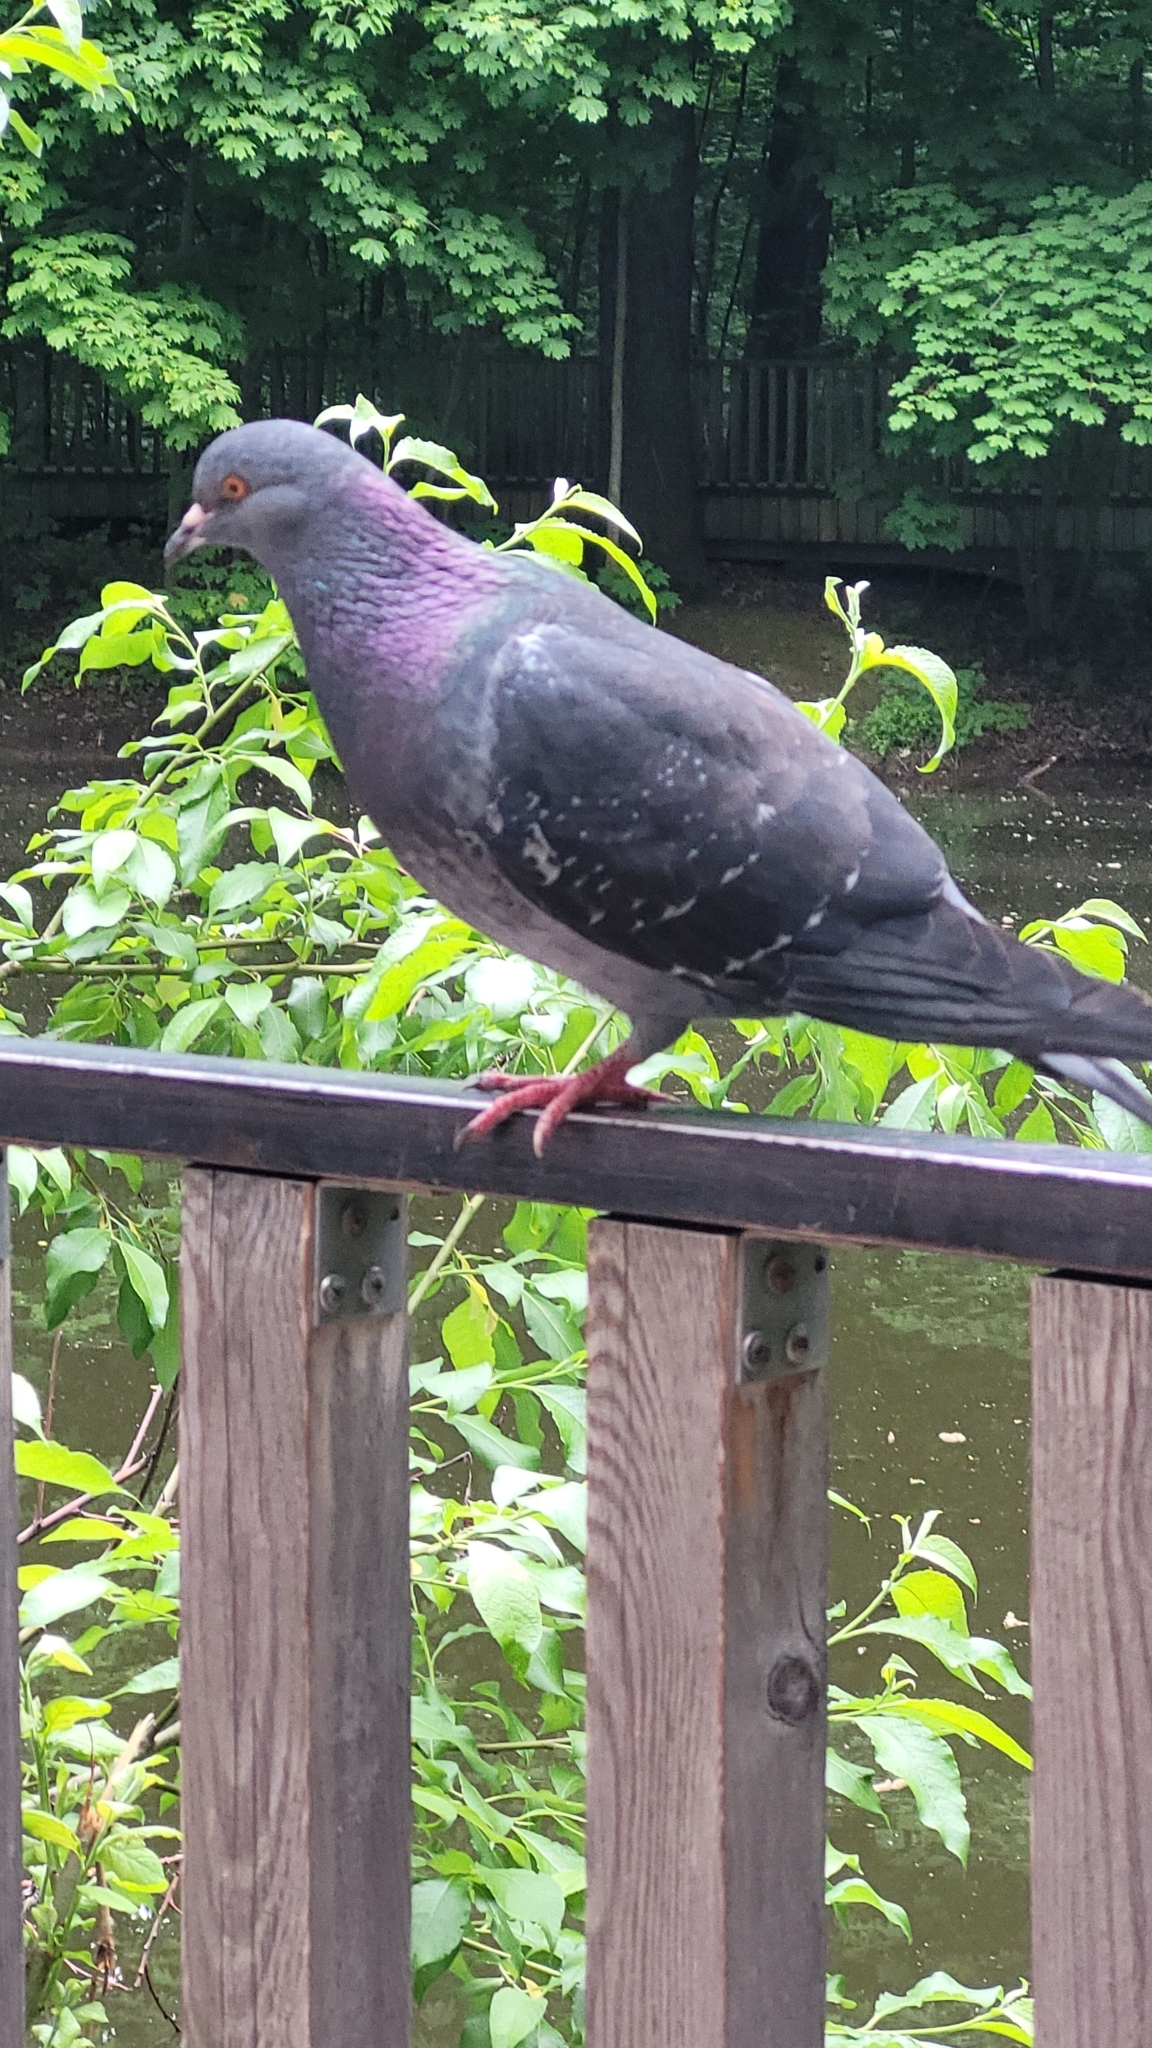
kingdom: Animalia
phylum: Chordata
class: Aves
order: Columbiformes
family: Columbidae
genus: Columba
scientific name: Columba livia
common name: Rock pigeon
